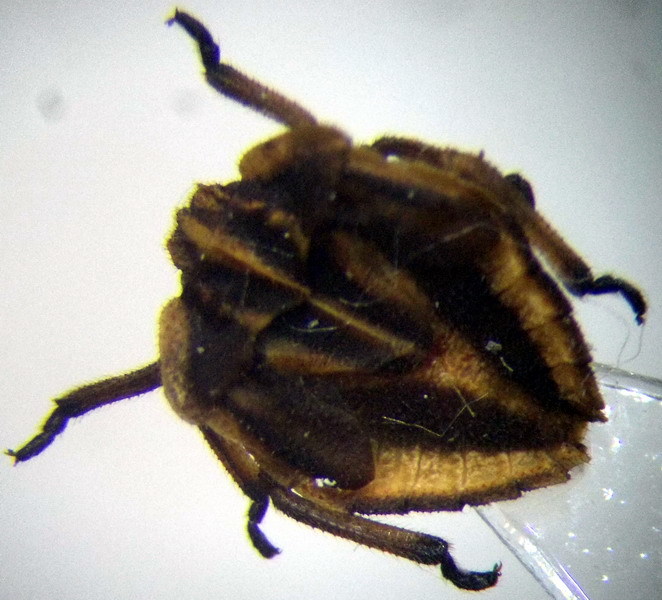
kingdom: Animalia
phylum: Arthropoda
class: Insecta
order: Hemiptera
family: Pentatomidae
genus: Tholagmus
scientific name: Tholagmus flavolineatus
